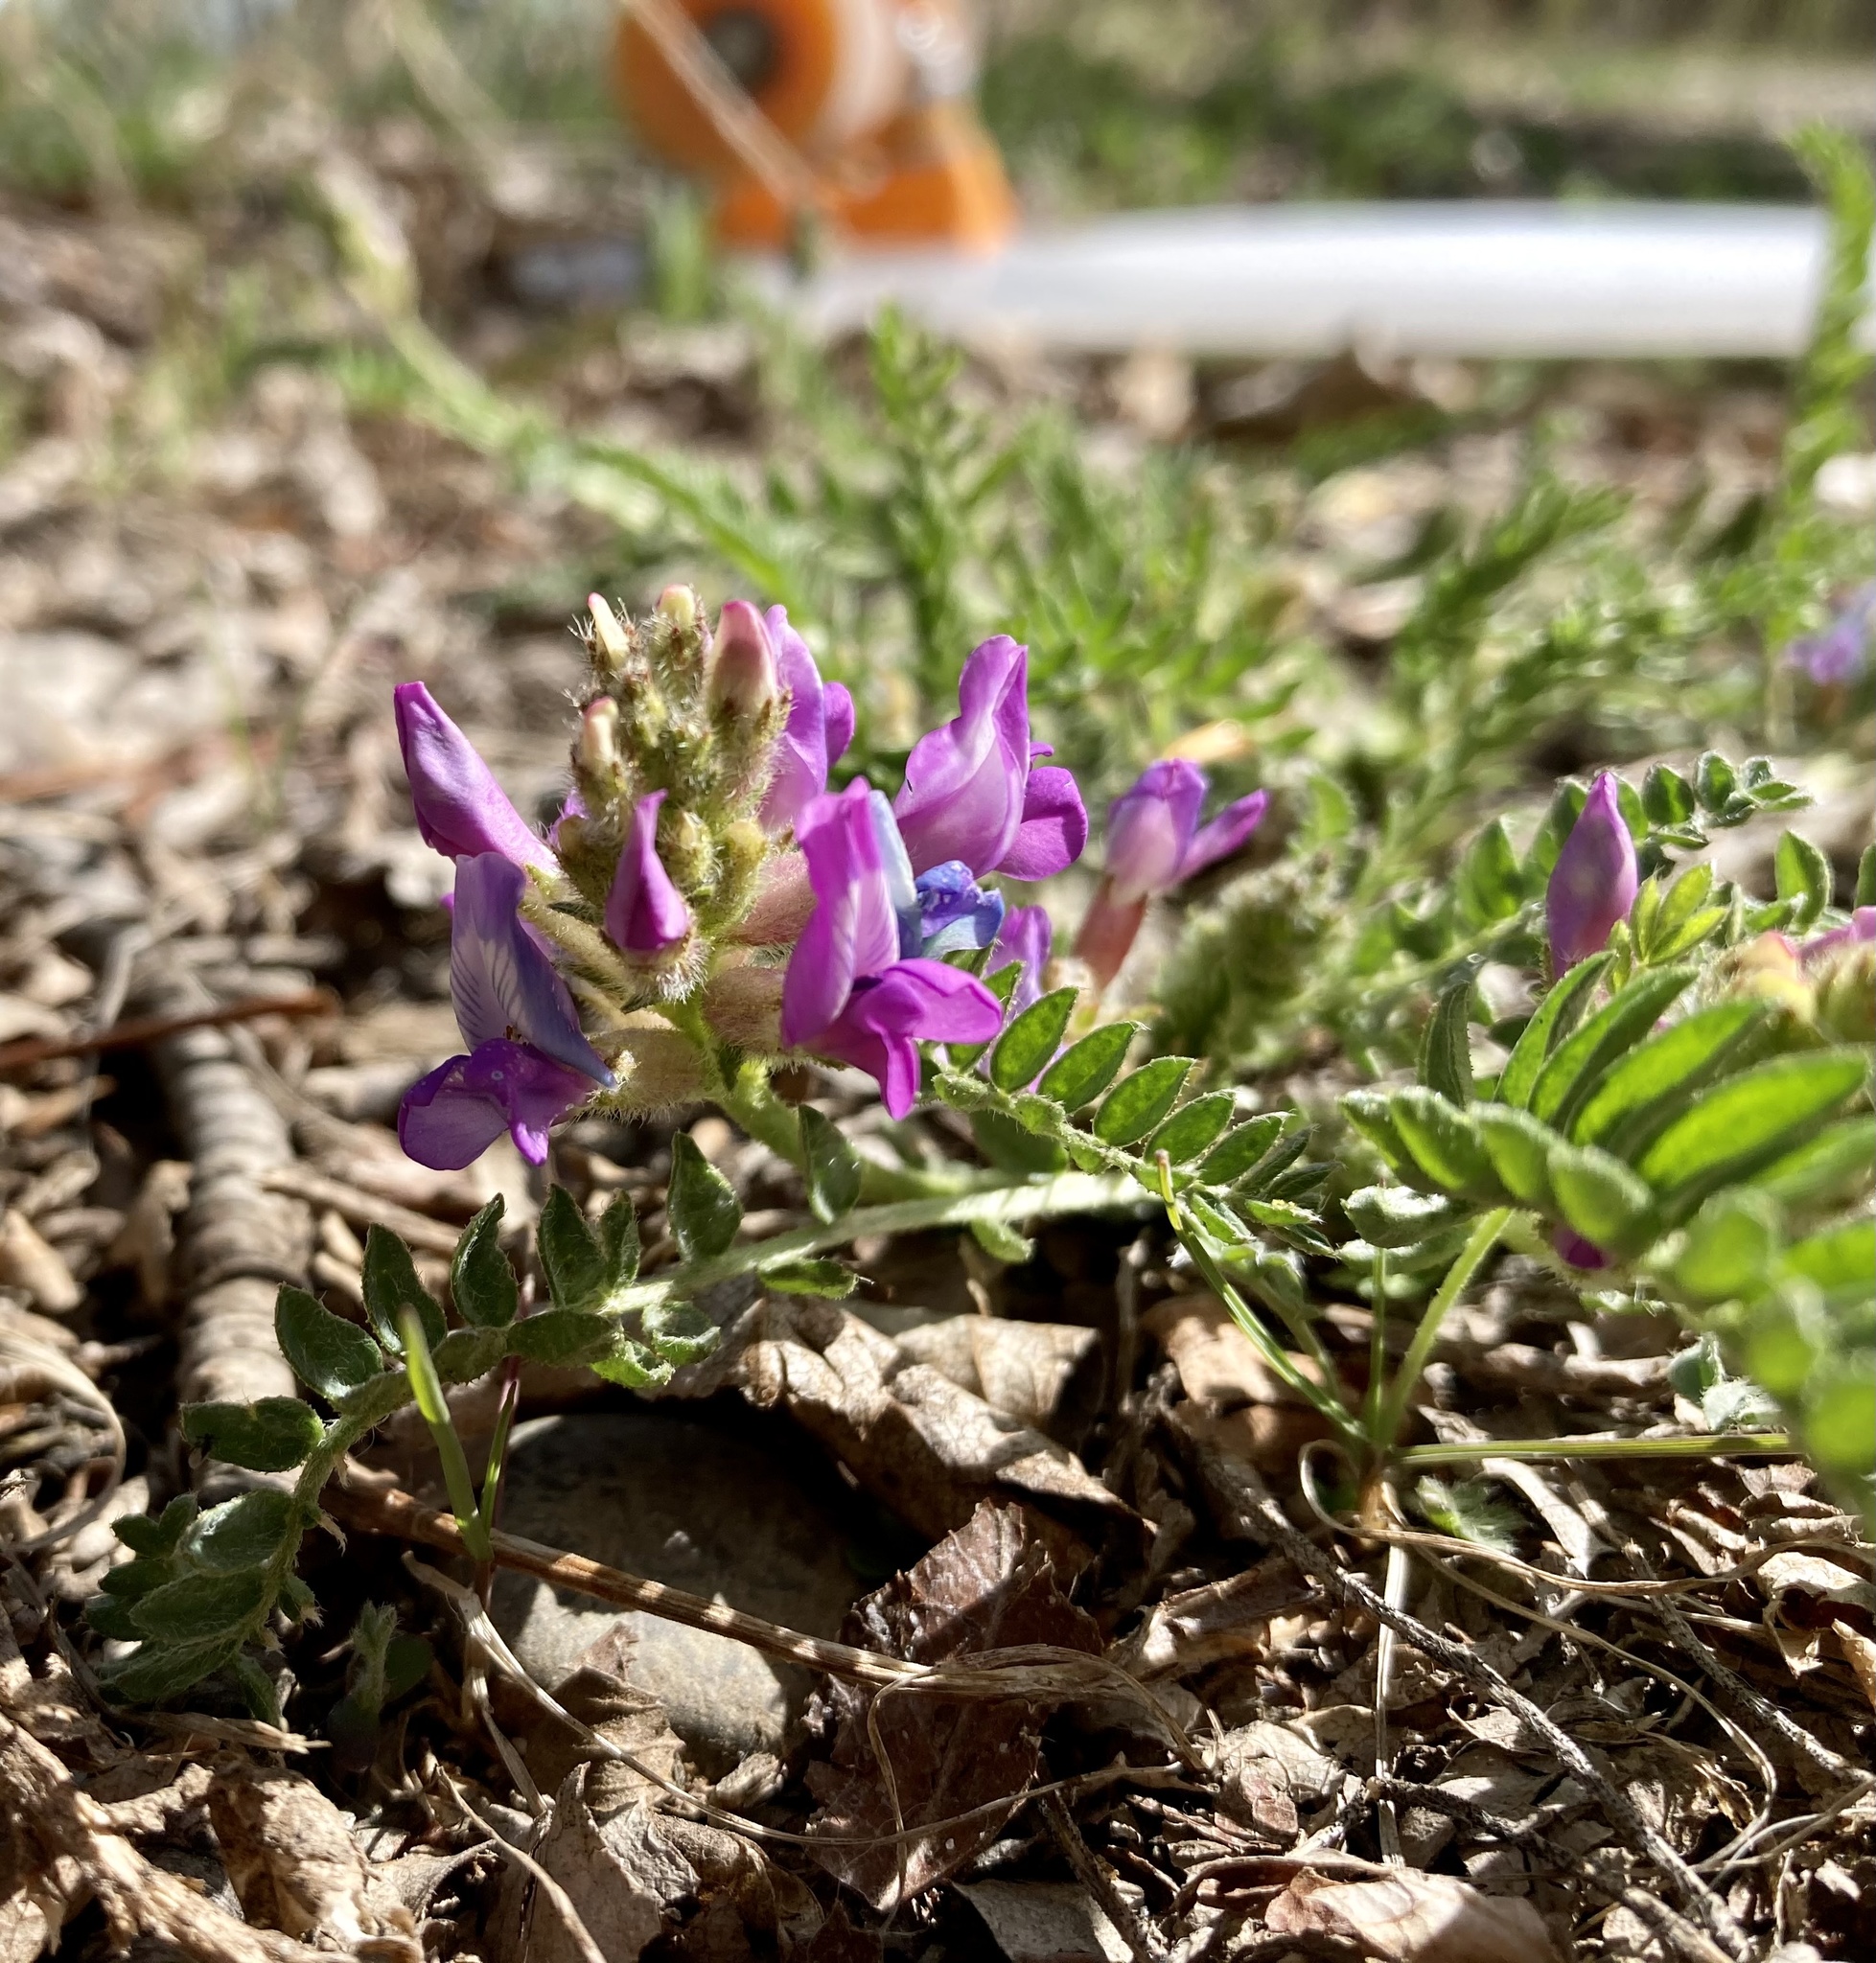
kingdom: Plantae
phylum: Tracheophyta
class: Magnoliopsida
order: Fabales
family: Fabaceae
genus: Oxytropis
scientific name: Oxytropis borealis
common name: Boreal locoweed
